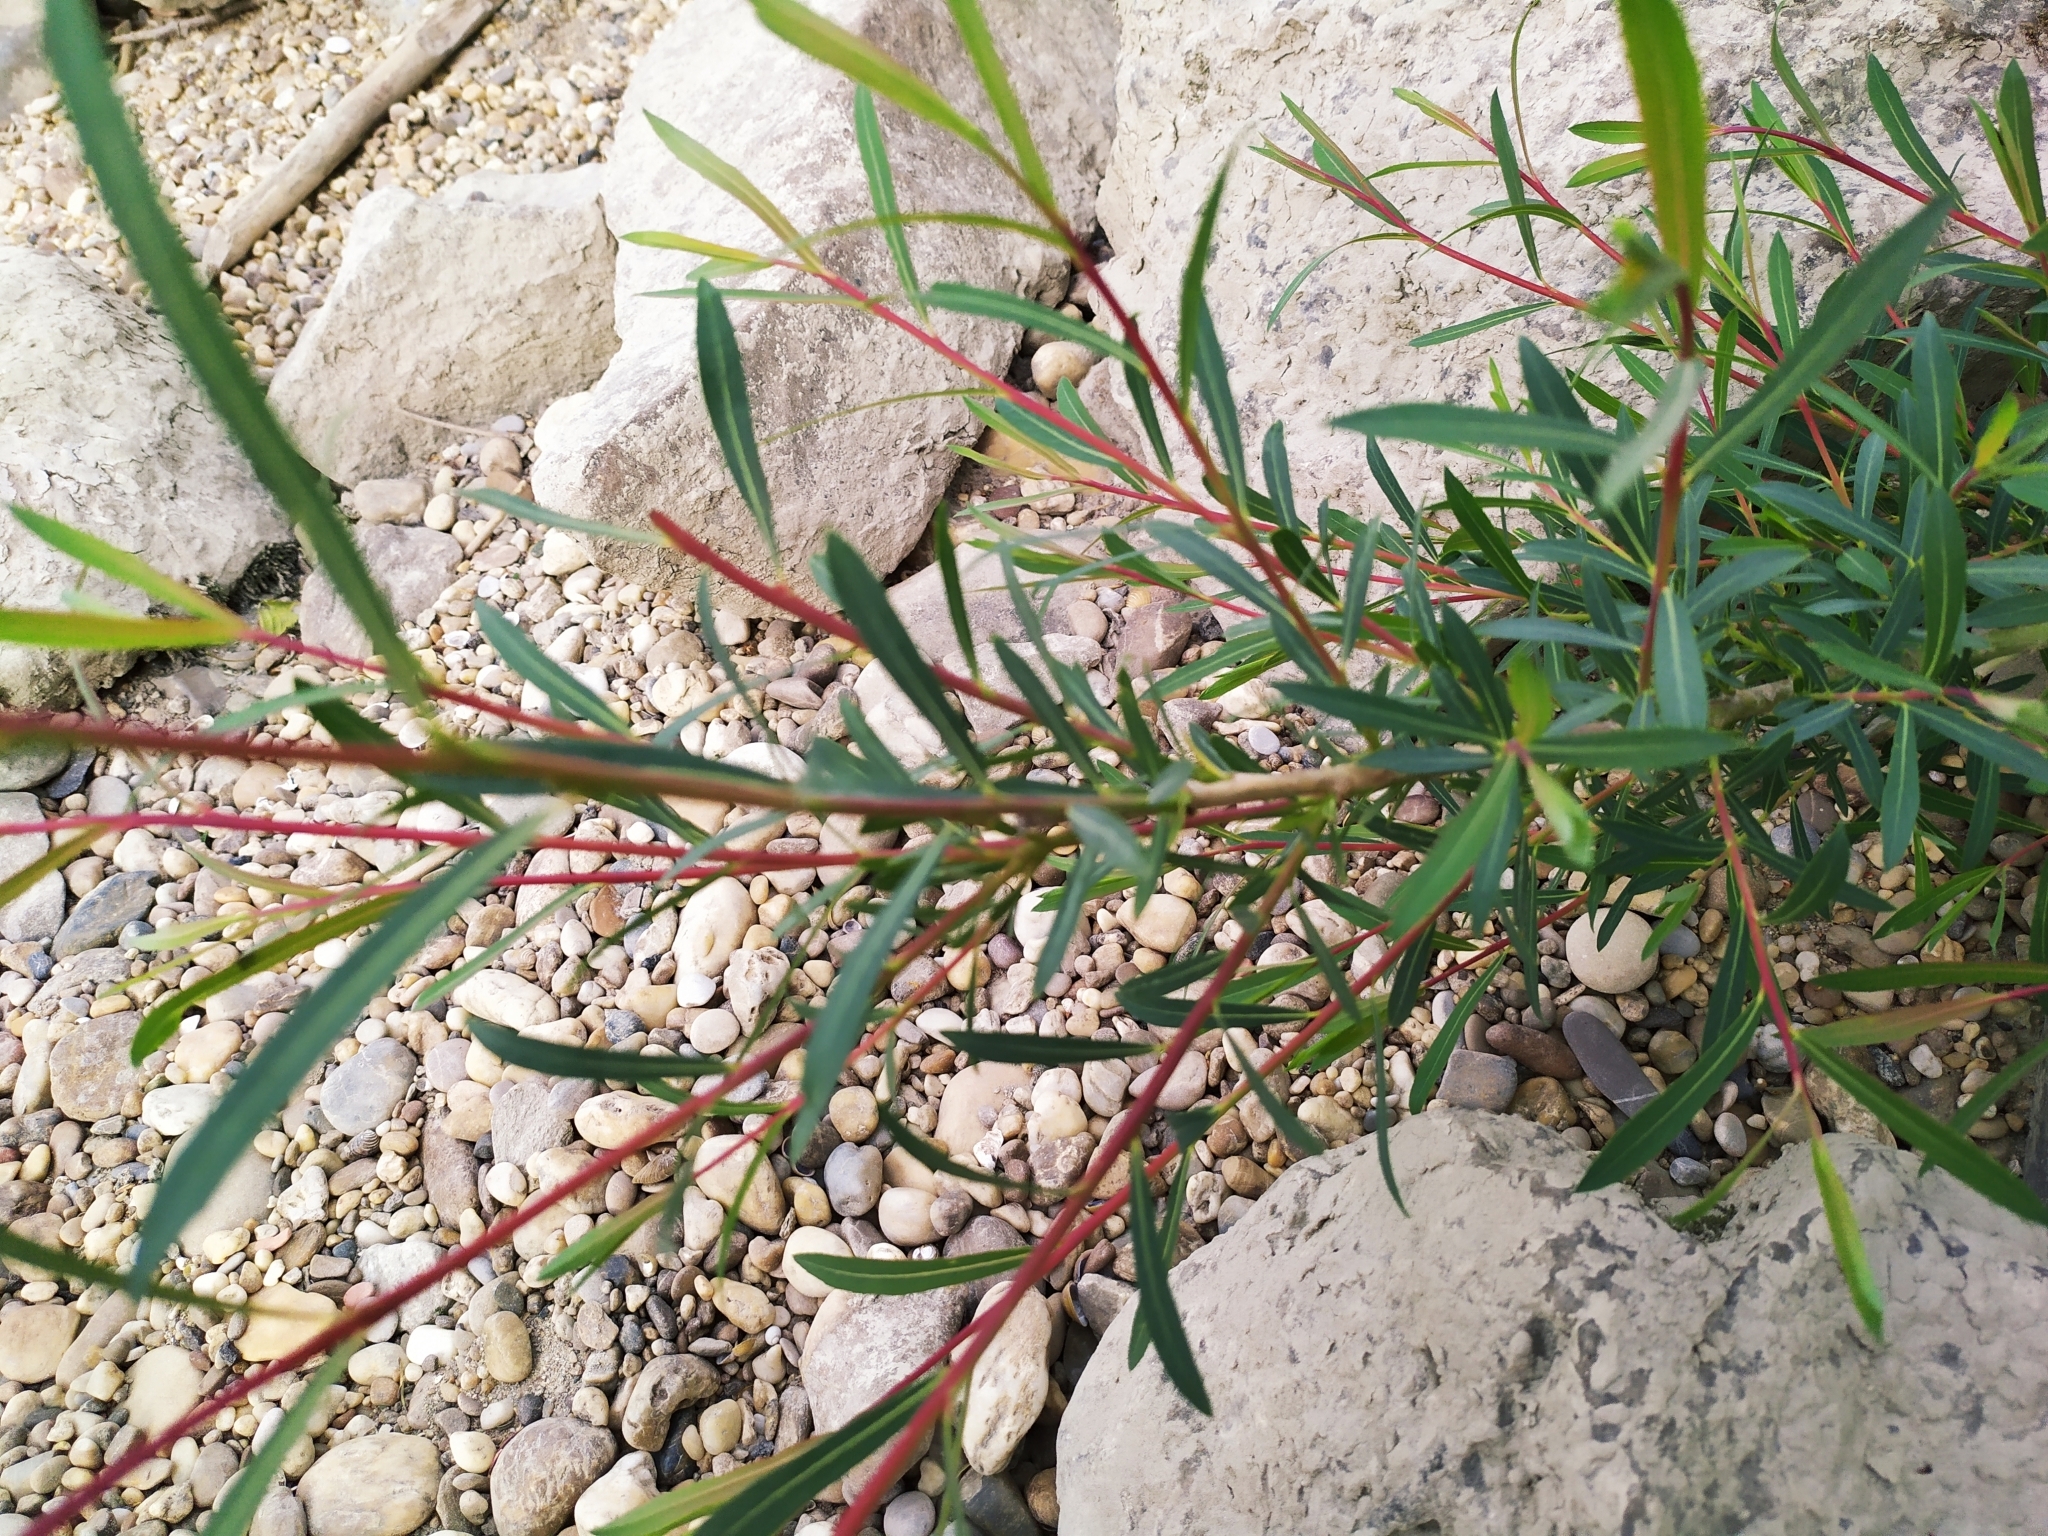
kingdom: Plantae
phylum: Tracheophyta
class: Magnoliopsida
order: Malpighiales
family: Salicaceae
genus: Salix
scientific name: Salix purpurea
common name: Purple willow
